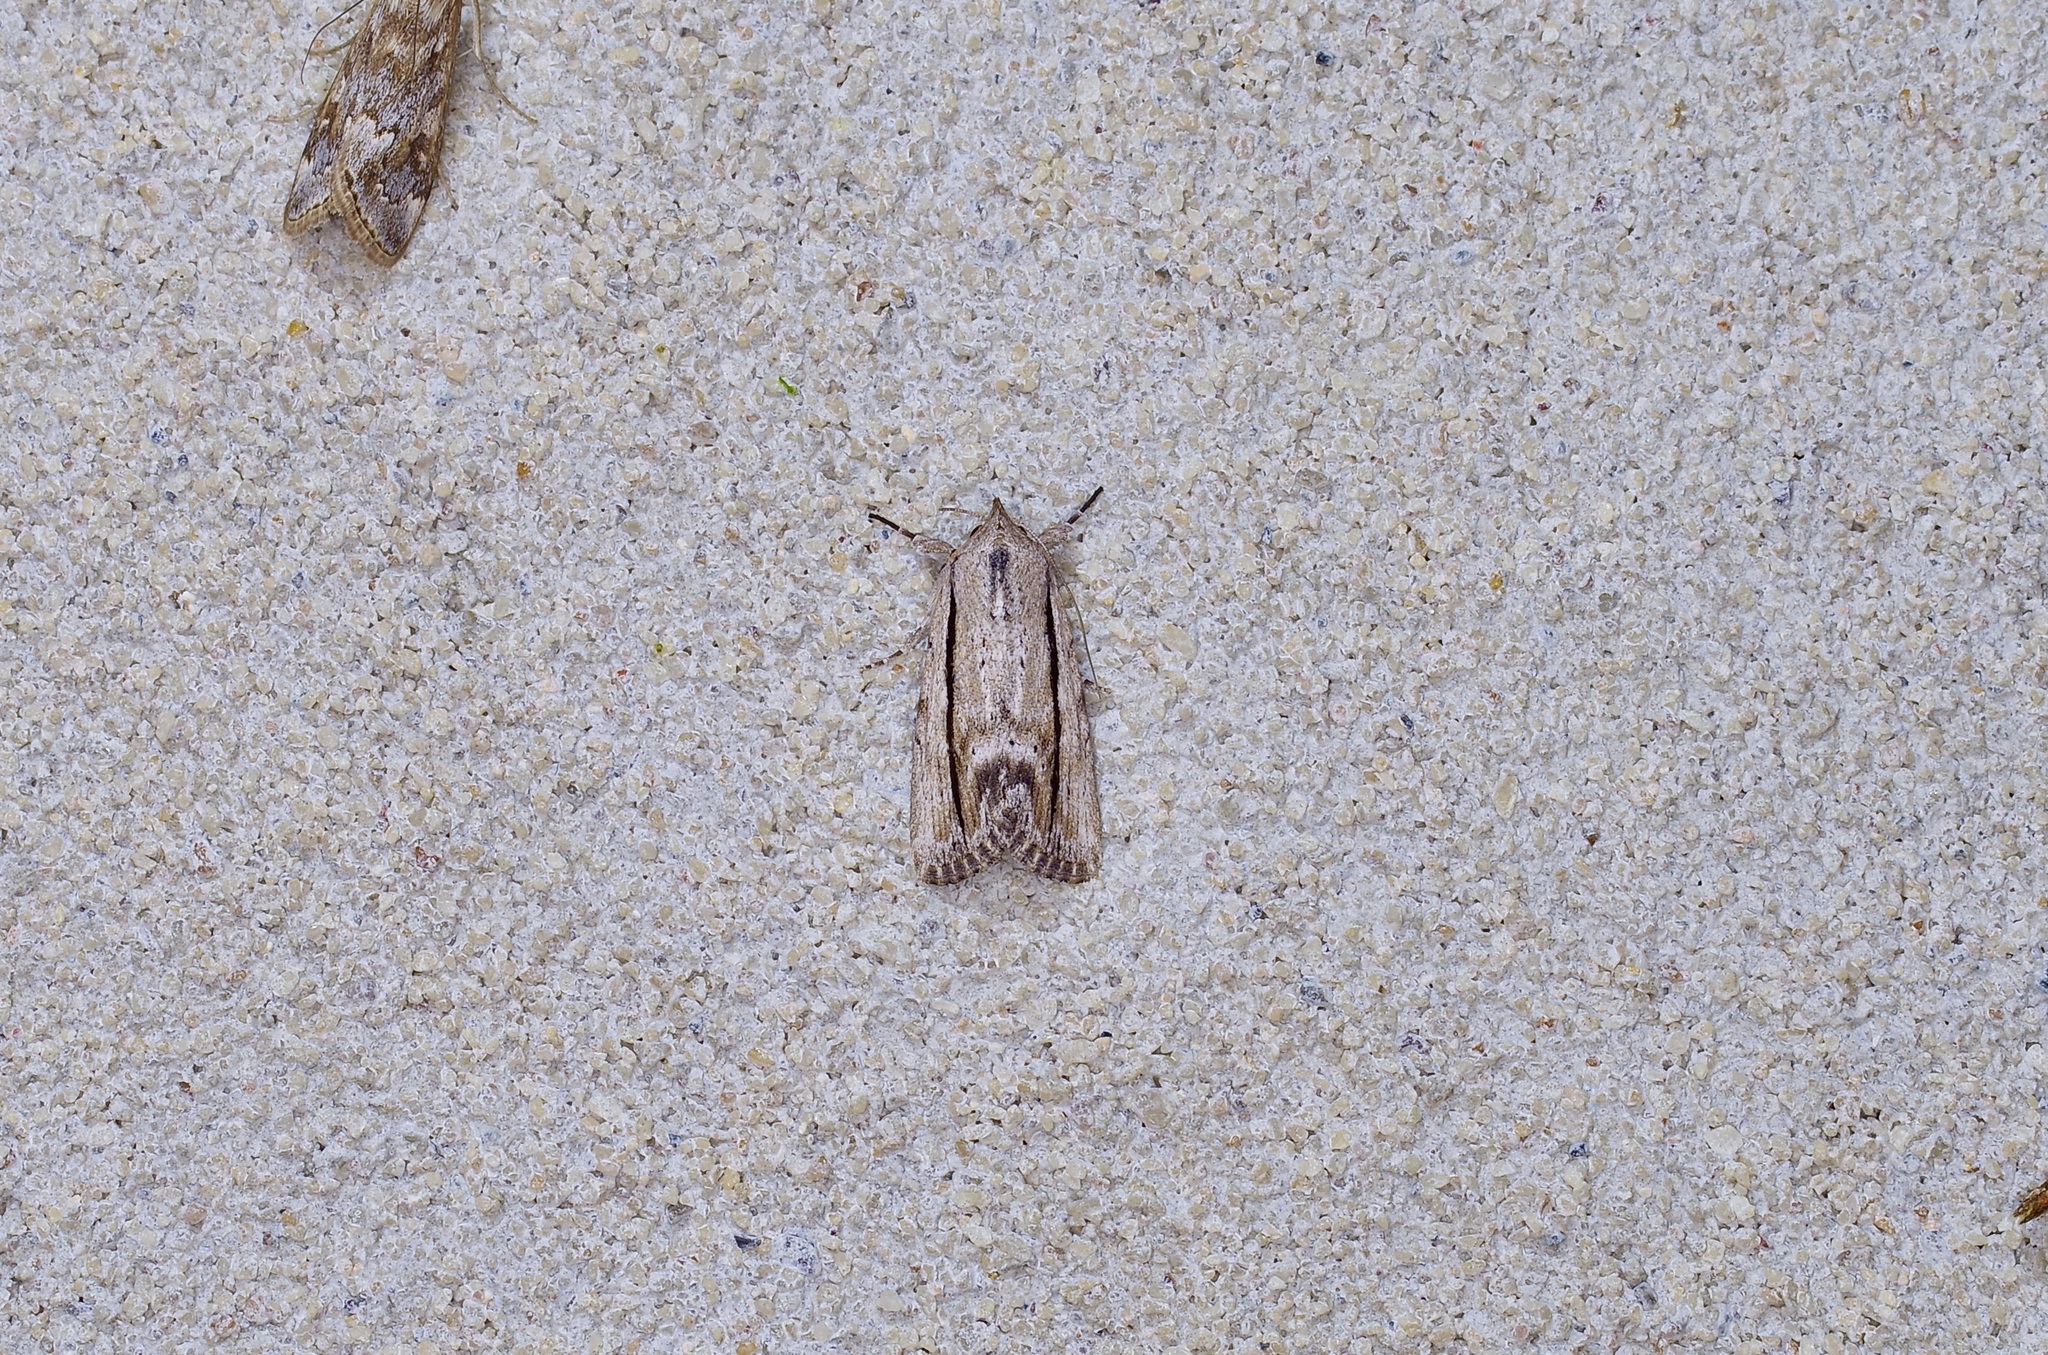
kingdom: Animalia
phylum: Arthropoda
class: Insecta
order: Lepidoptera
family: Noctuidae
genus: Catabenoides
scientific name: Catabenoides terminellus
